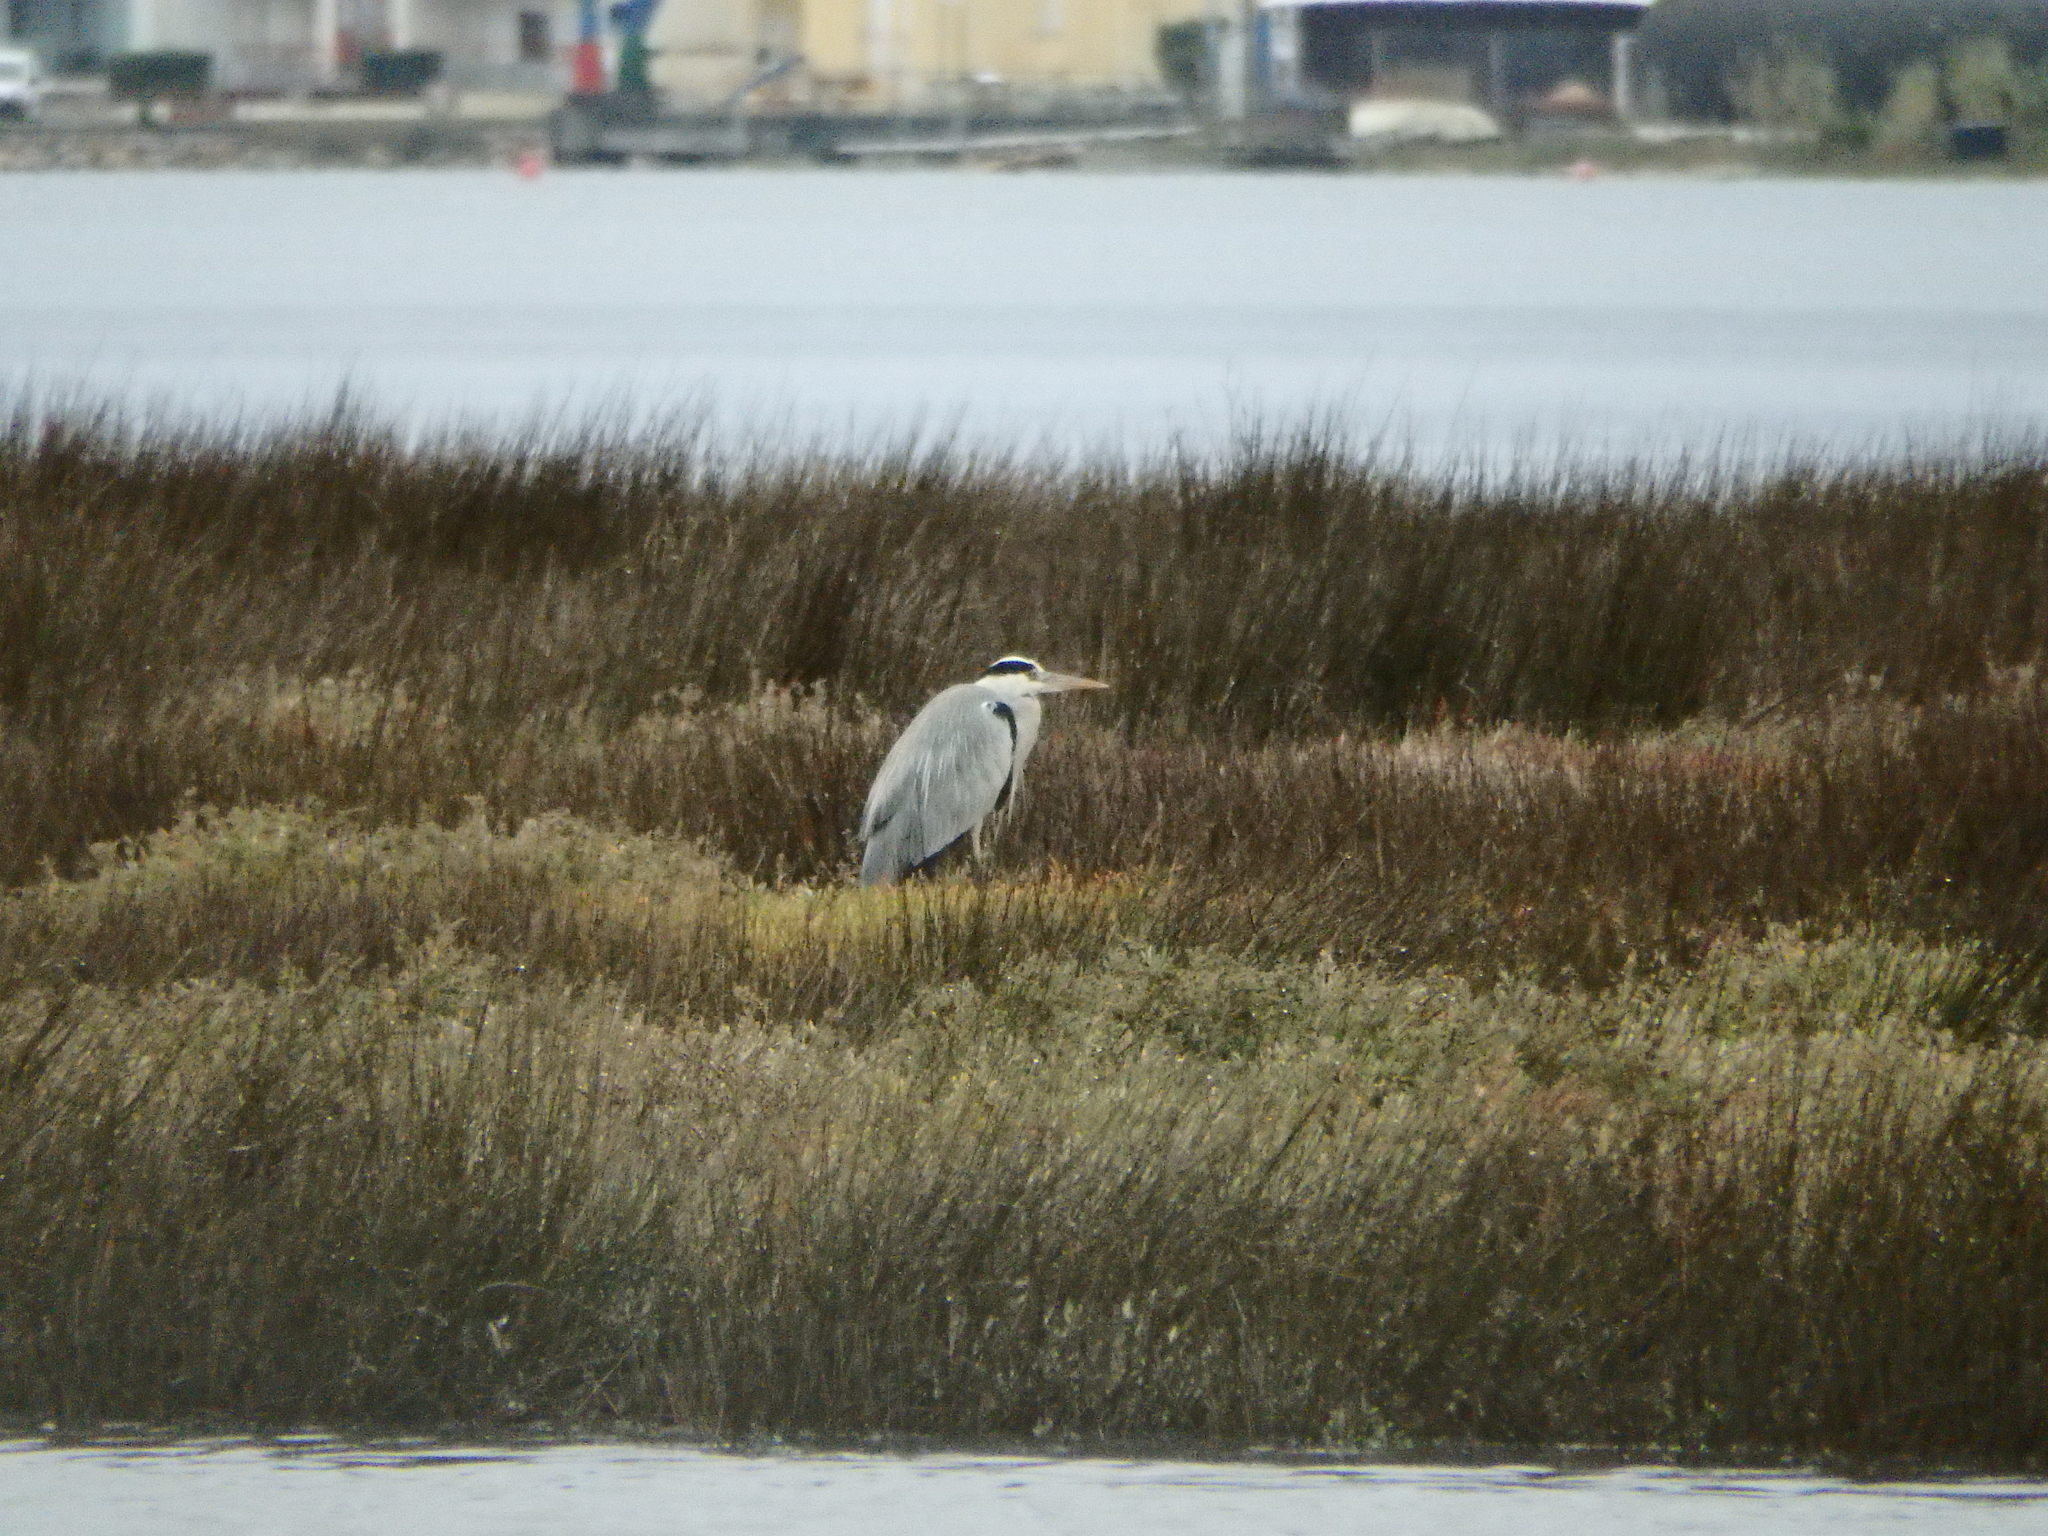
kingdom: Animalia
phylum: Chordata
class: Aves
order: Pelecaniformes
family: Ardeidae
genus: Ardea
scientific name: Ardea cinerea
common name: Grey heron
